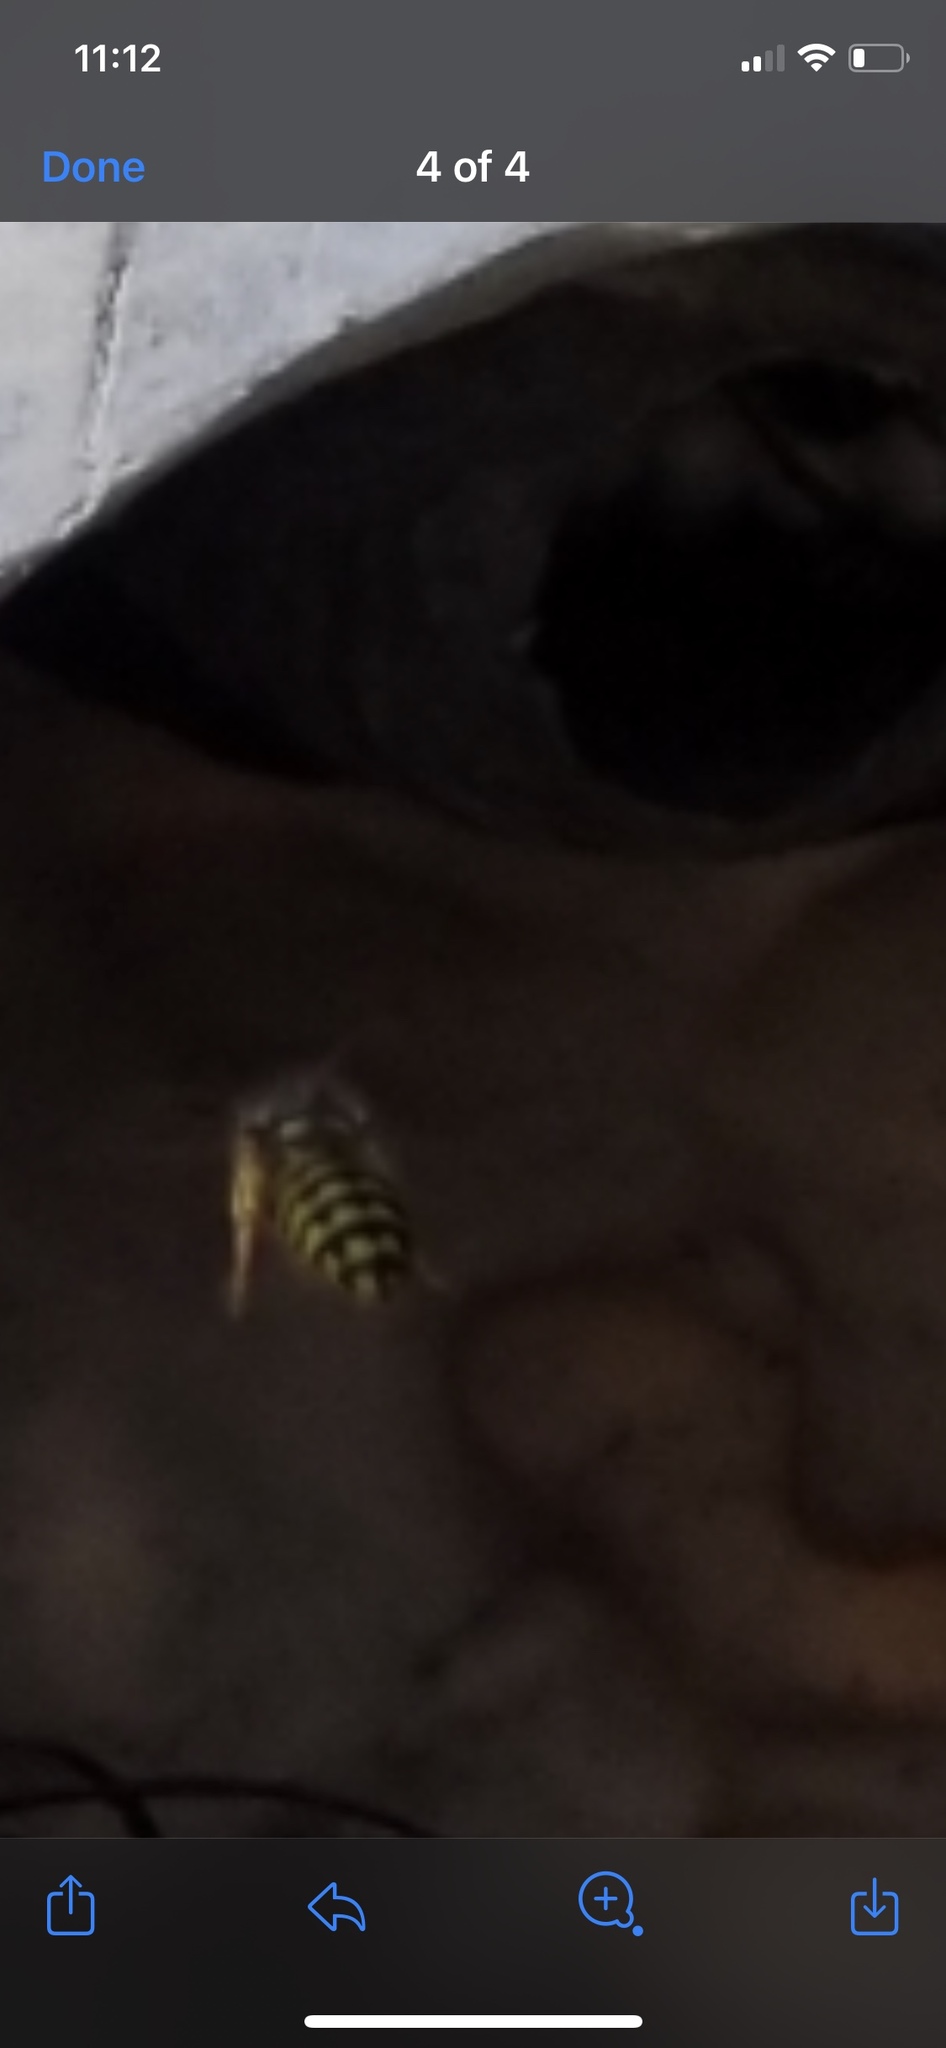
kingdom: Animalia
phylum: Arthropoda
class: Insecta
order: Hymenoptera
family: Vespidae
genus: Dolichovespula
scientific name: Dolichovespula arenaria
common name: Aerial yellowjacket
